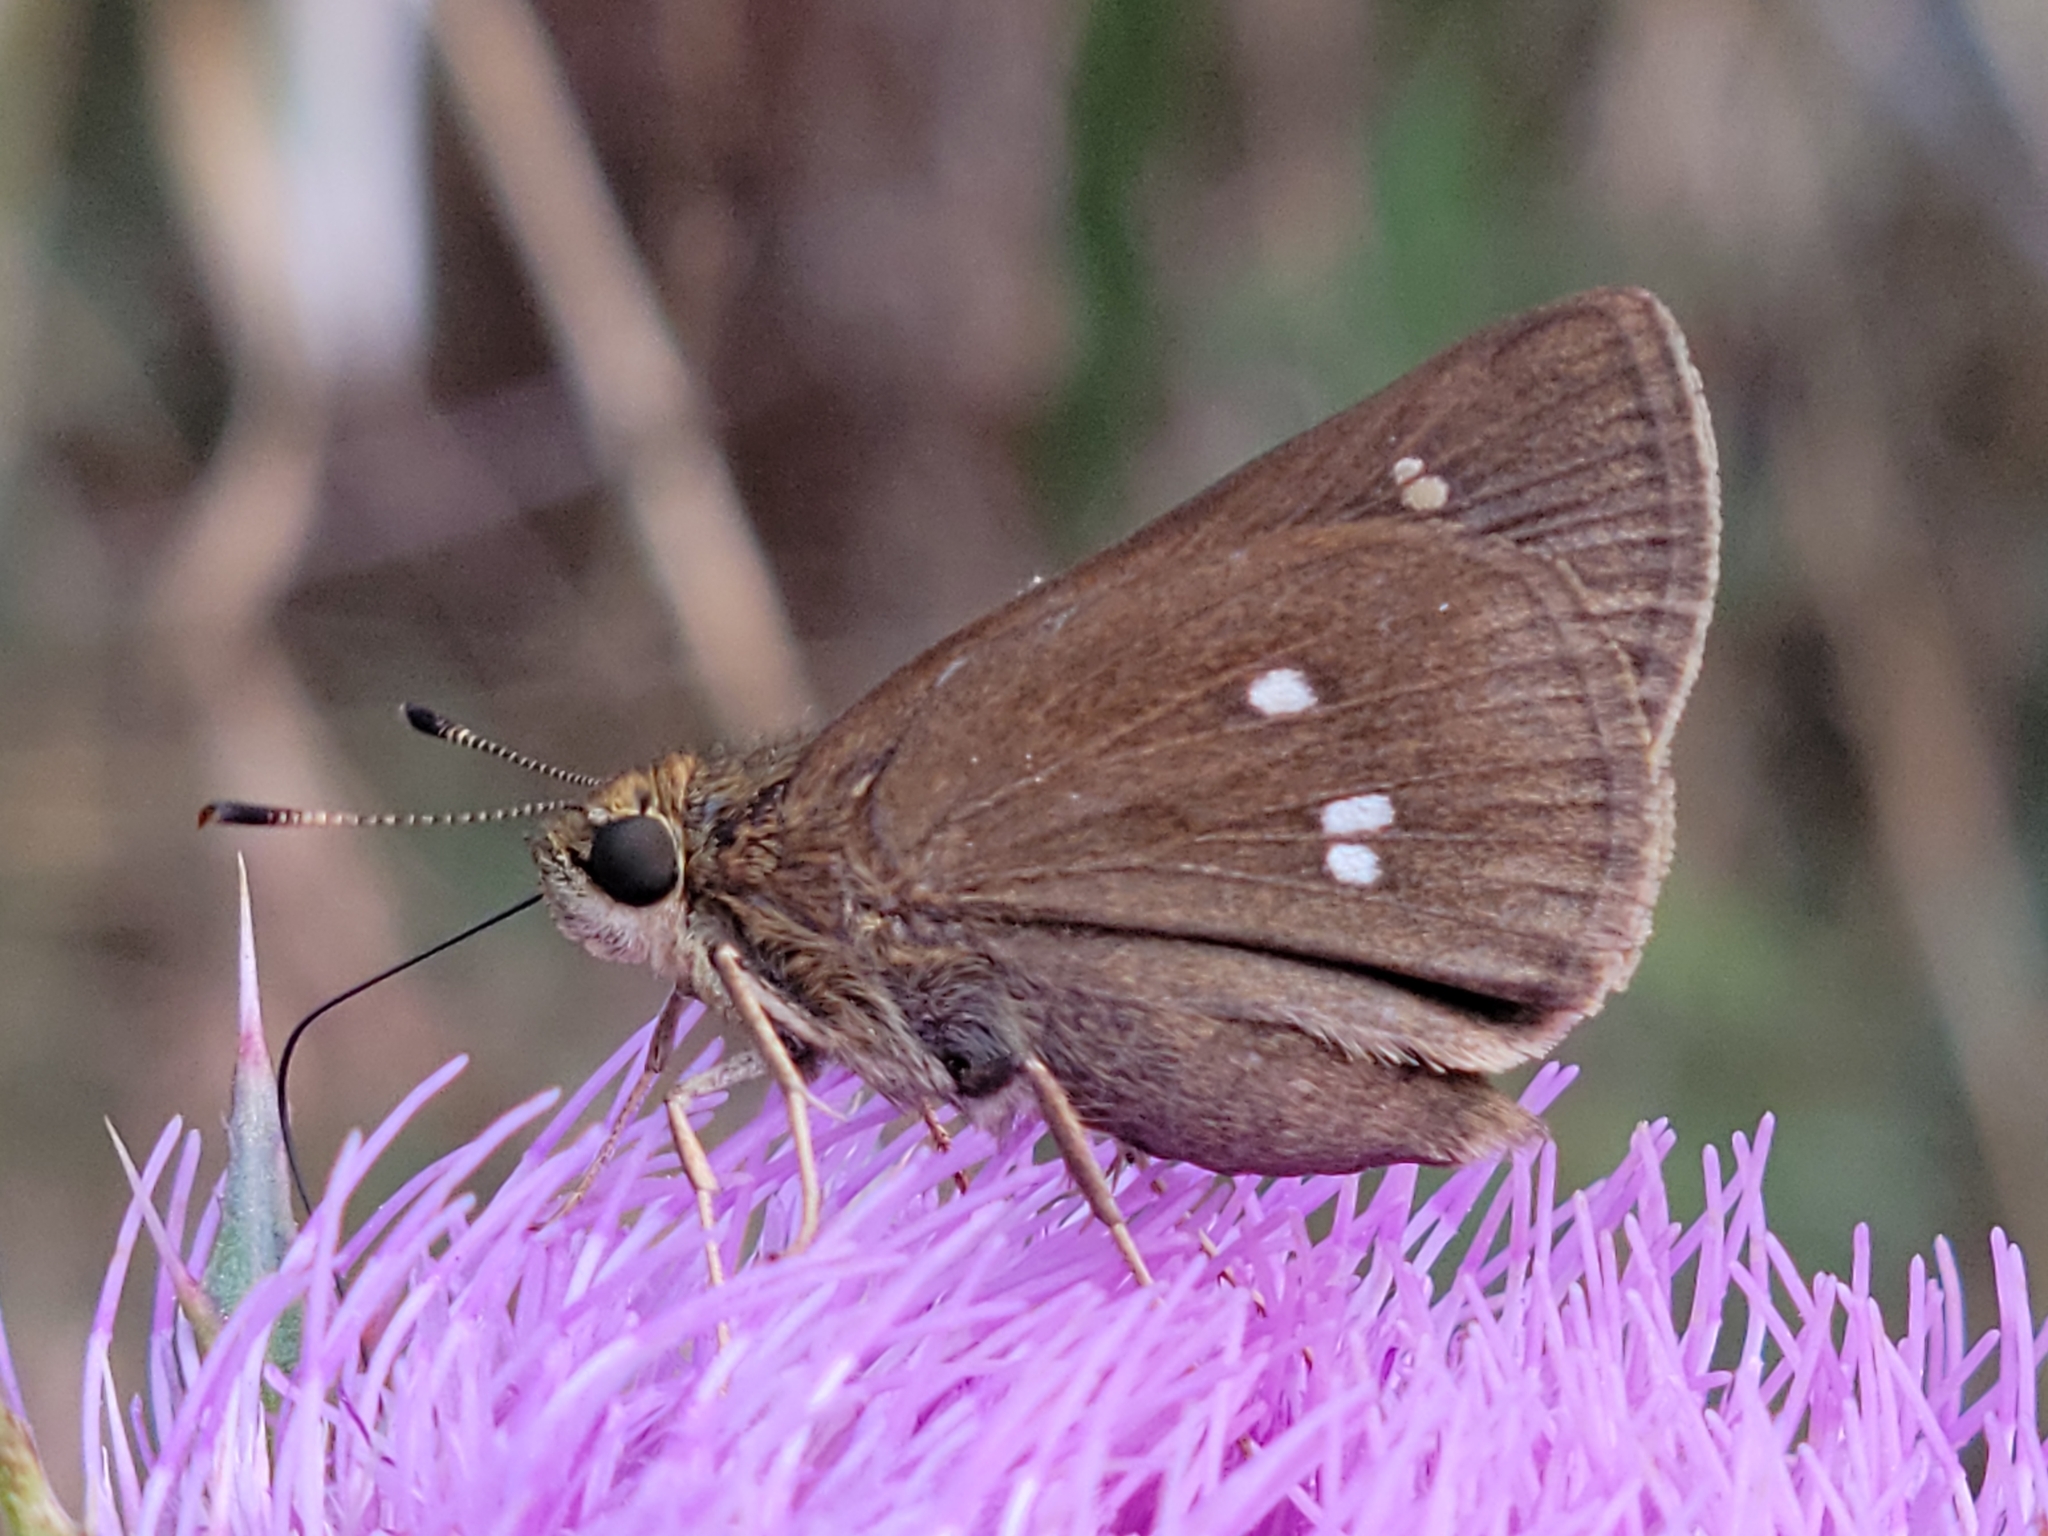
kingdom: Animalia
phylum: Arthropoda
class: Insecta
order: Lepidoptera
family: Hesperiidae
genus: Oligoria
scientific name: Oligoria maculata
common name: Twin-spot skipper
